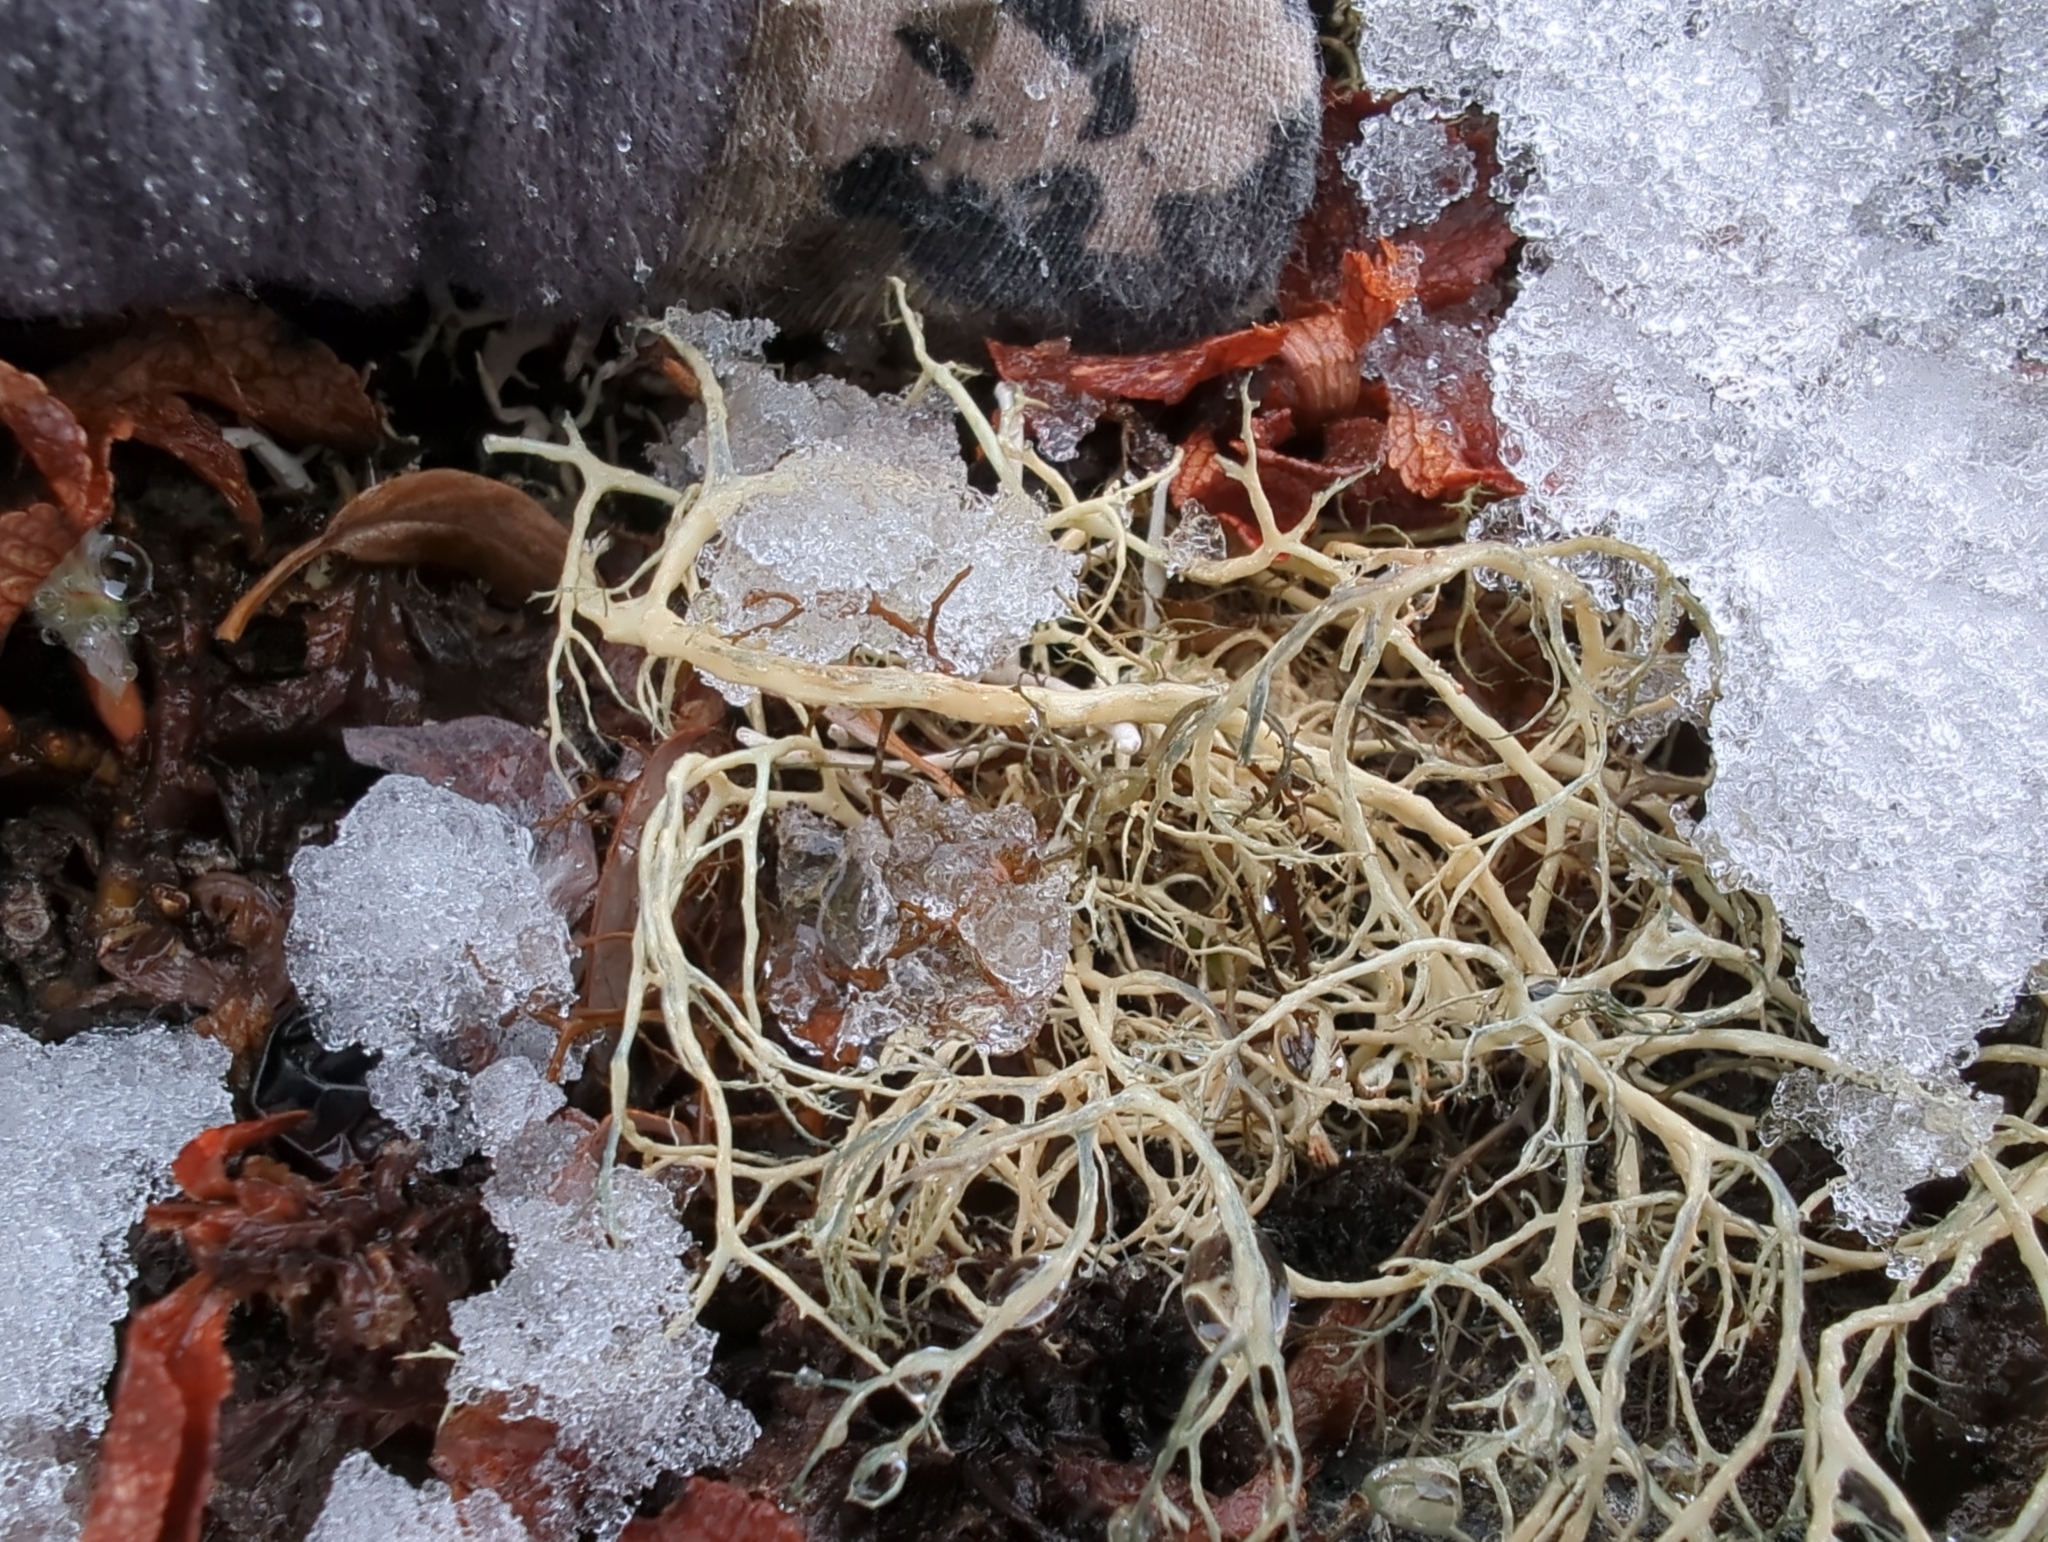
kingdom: Fungi
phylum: Ascomycota
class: Lecanoromycetes
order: Lecanorales
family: Parmeliaceae
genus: Alectoria
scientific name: Alectoria ochroleuca
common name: Alpine sulphur-tresses
